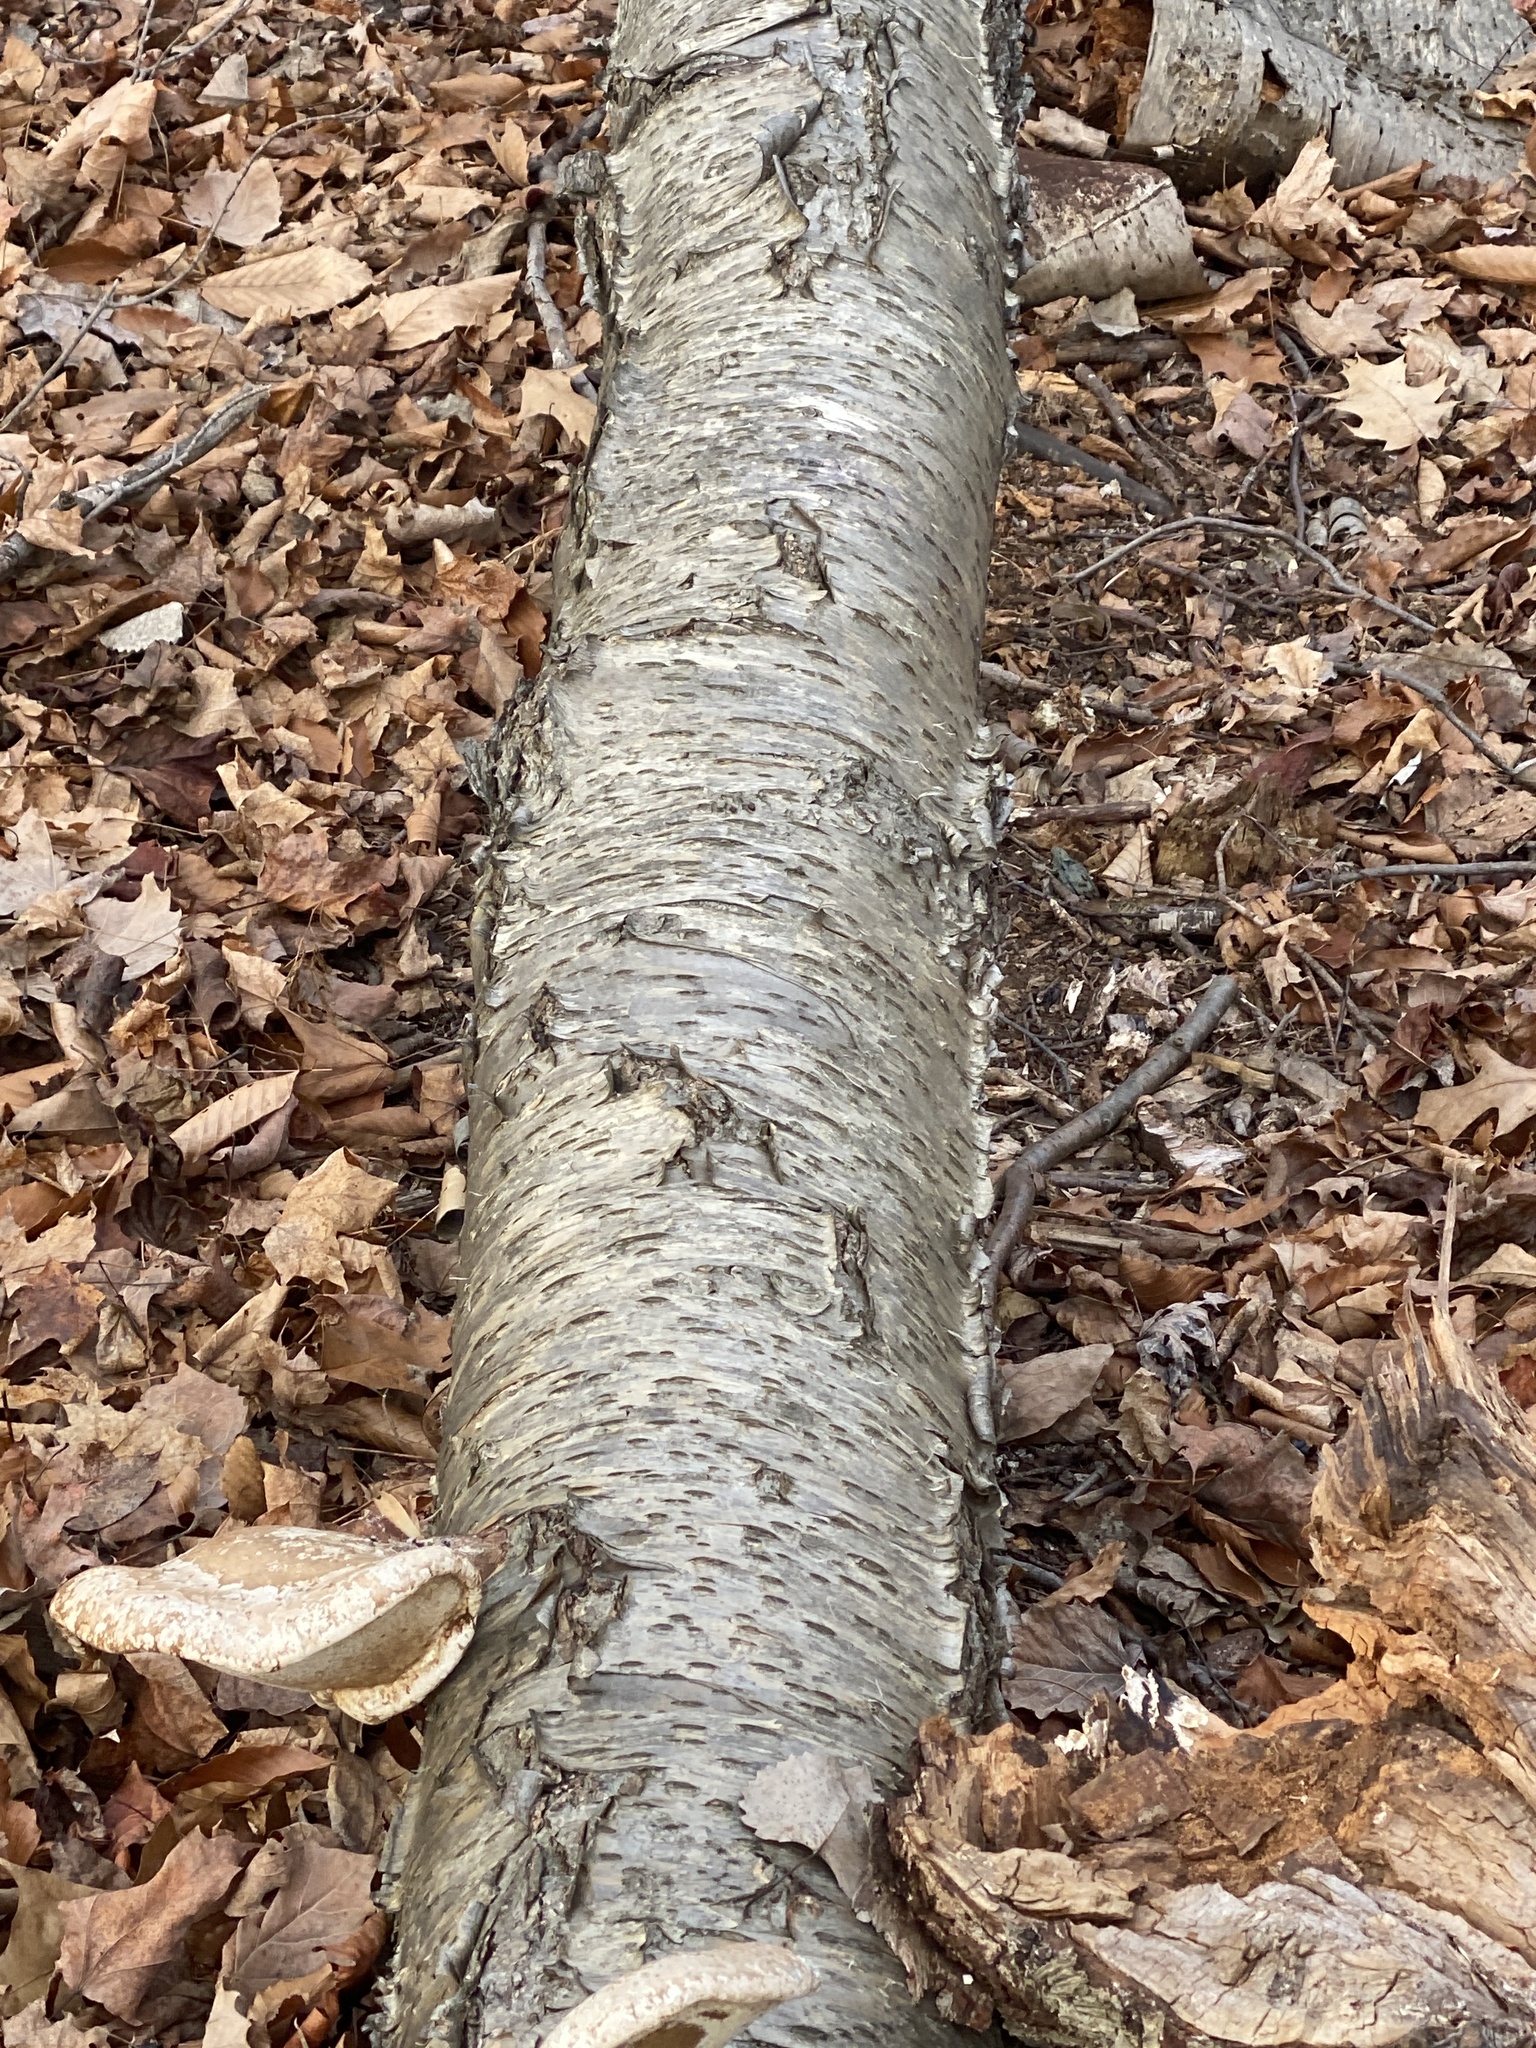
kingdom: Fungi
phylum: Basidiomycota
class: Agaricomycetes
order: Polyporales
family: Fomitopsidaceae
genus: Fomitopsis
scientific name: Fomitopsis betulina
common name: Birch polypore
